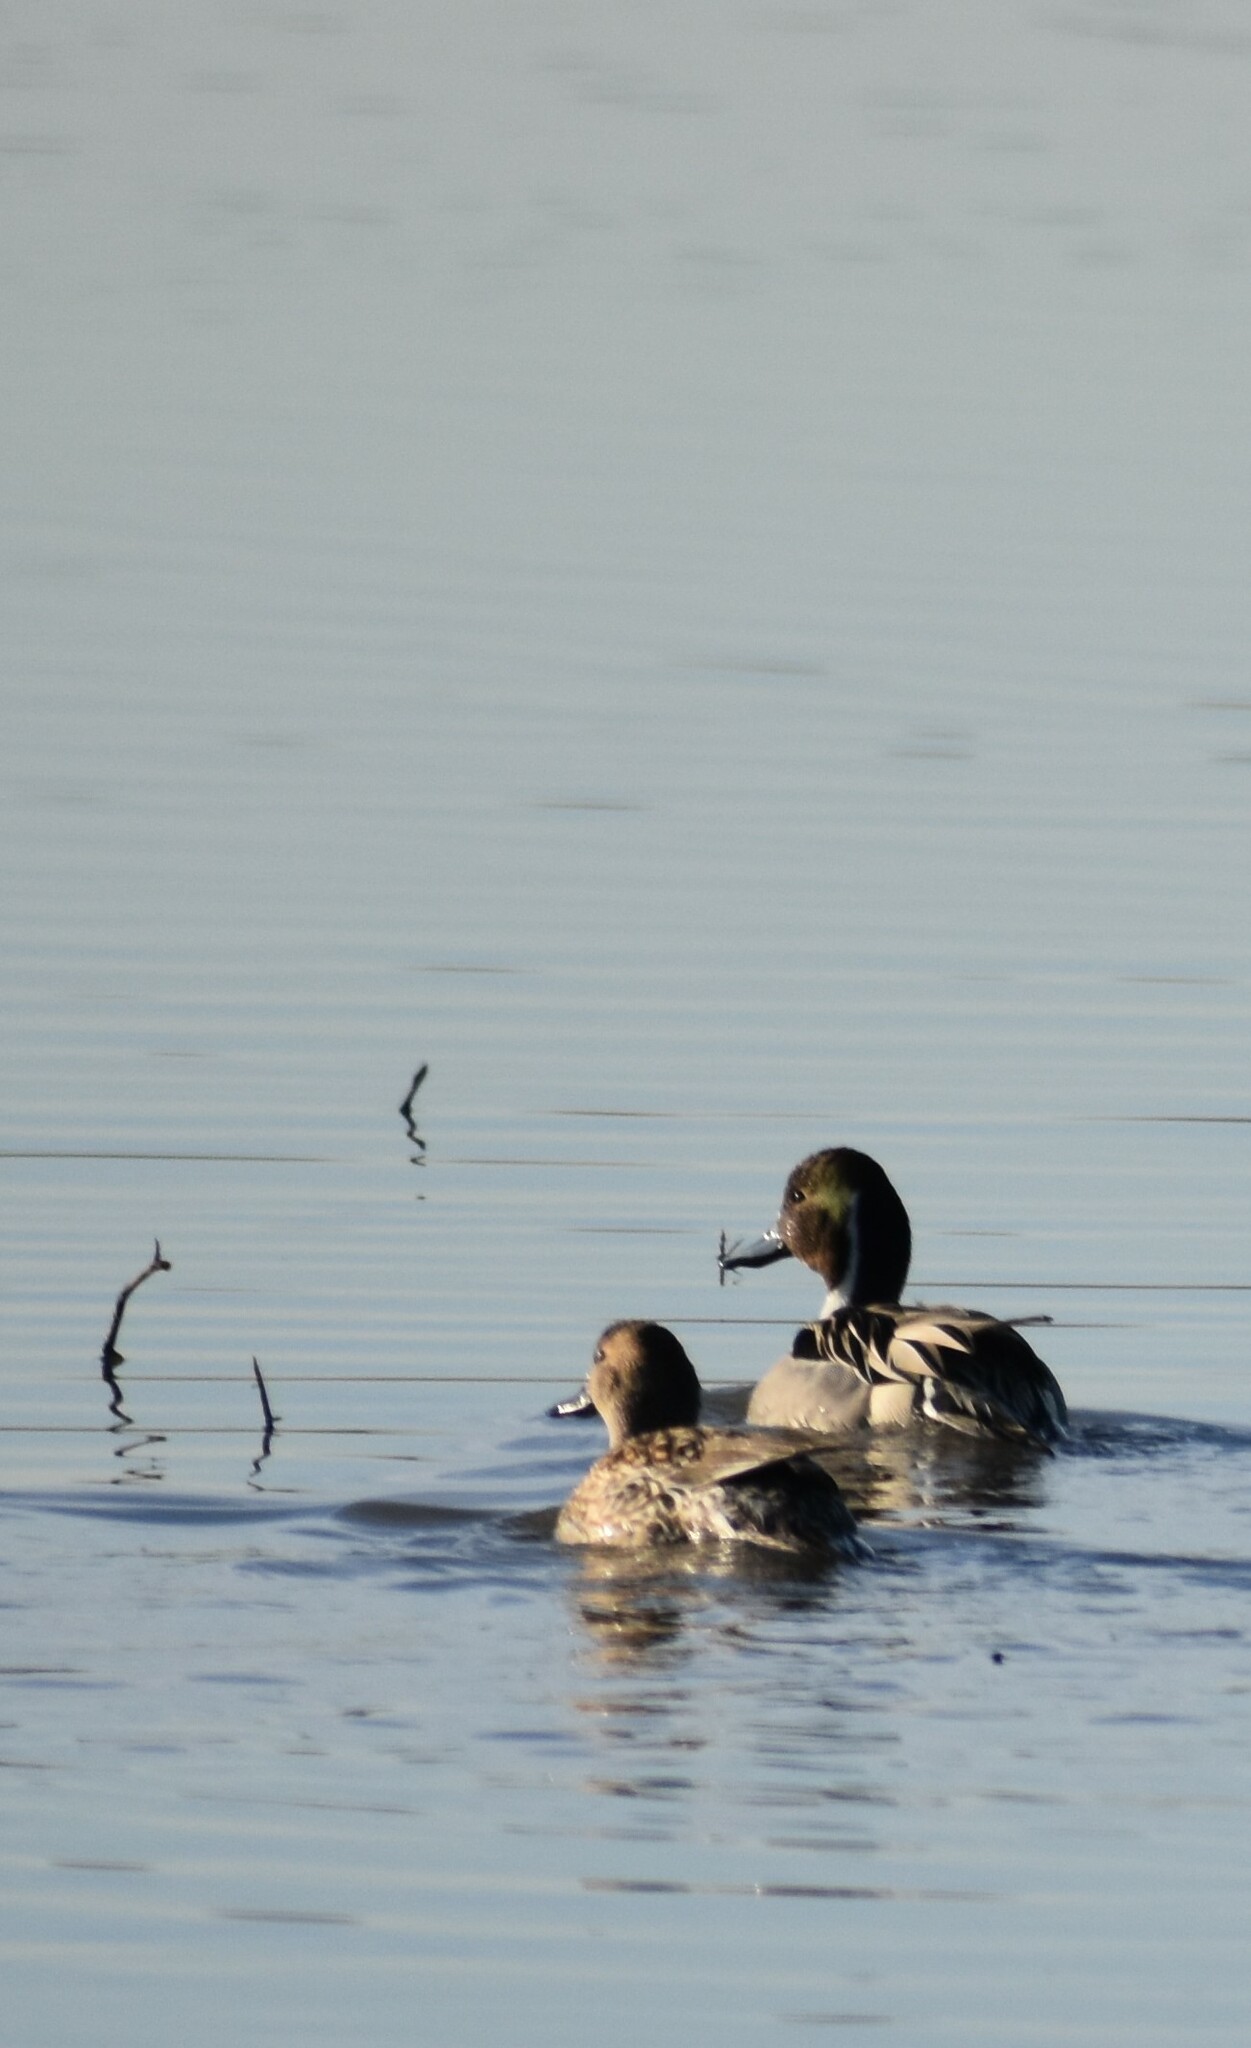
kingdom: Animalia
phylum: Chordata
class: Aves
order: Anseriformes
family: Anatidae
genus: Anas
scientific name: Anas acuta
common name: Northern pintail
